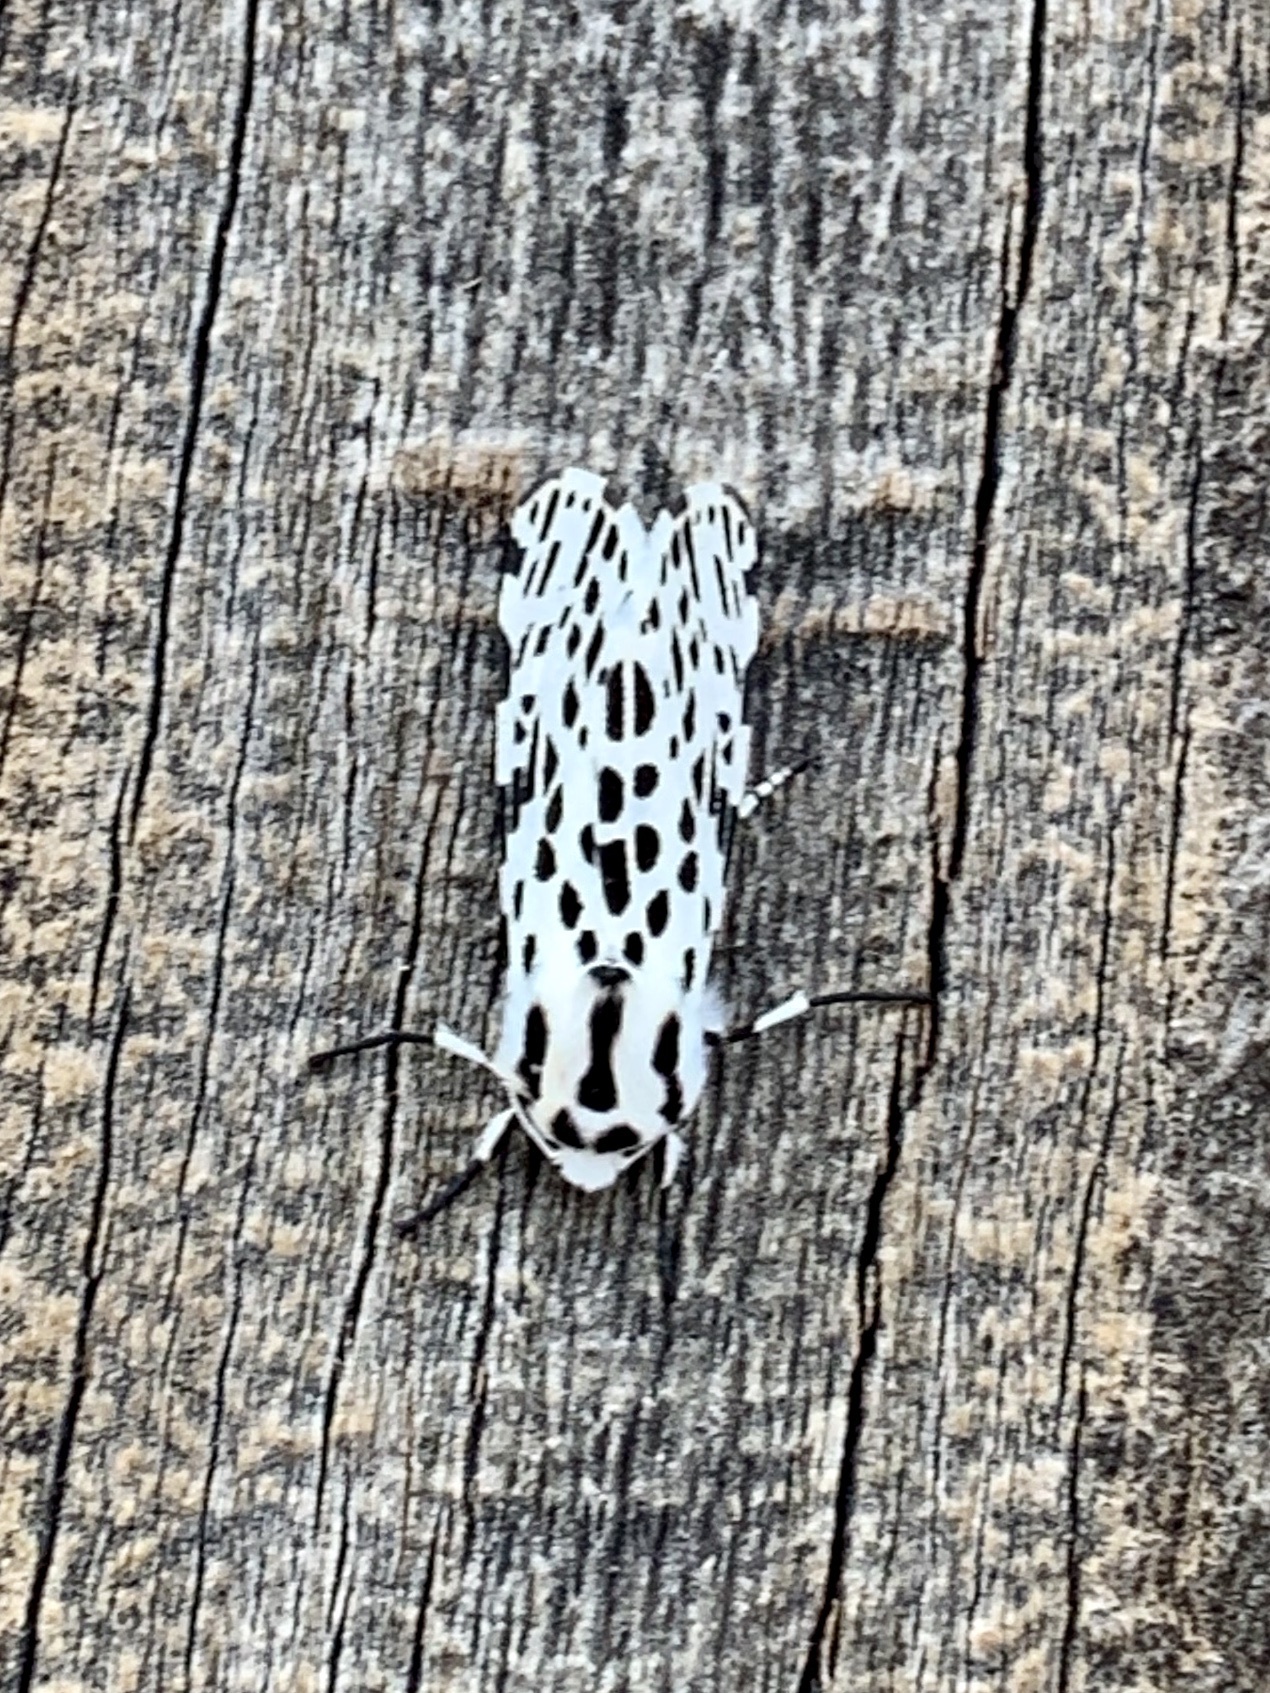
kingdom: Animalia
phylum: Arthropoda
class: Insecta
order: Lepidoptera
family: Erebidae
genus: Hypercompe
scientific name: Hypercompe permaculata
